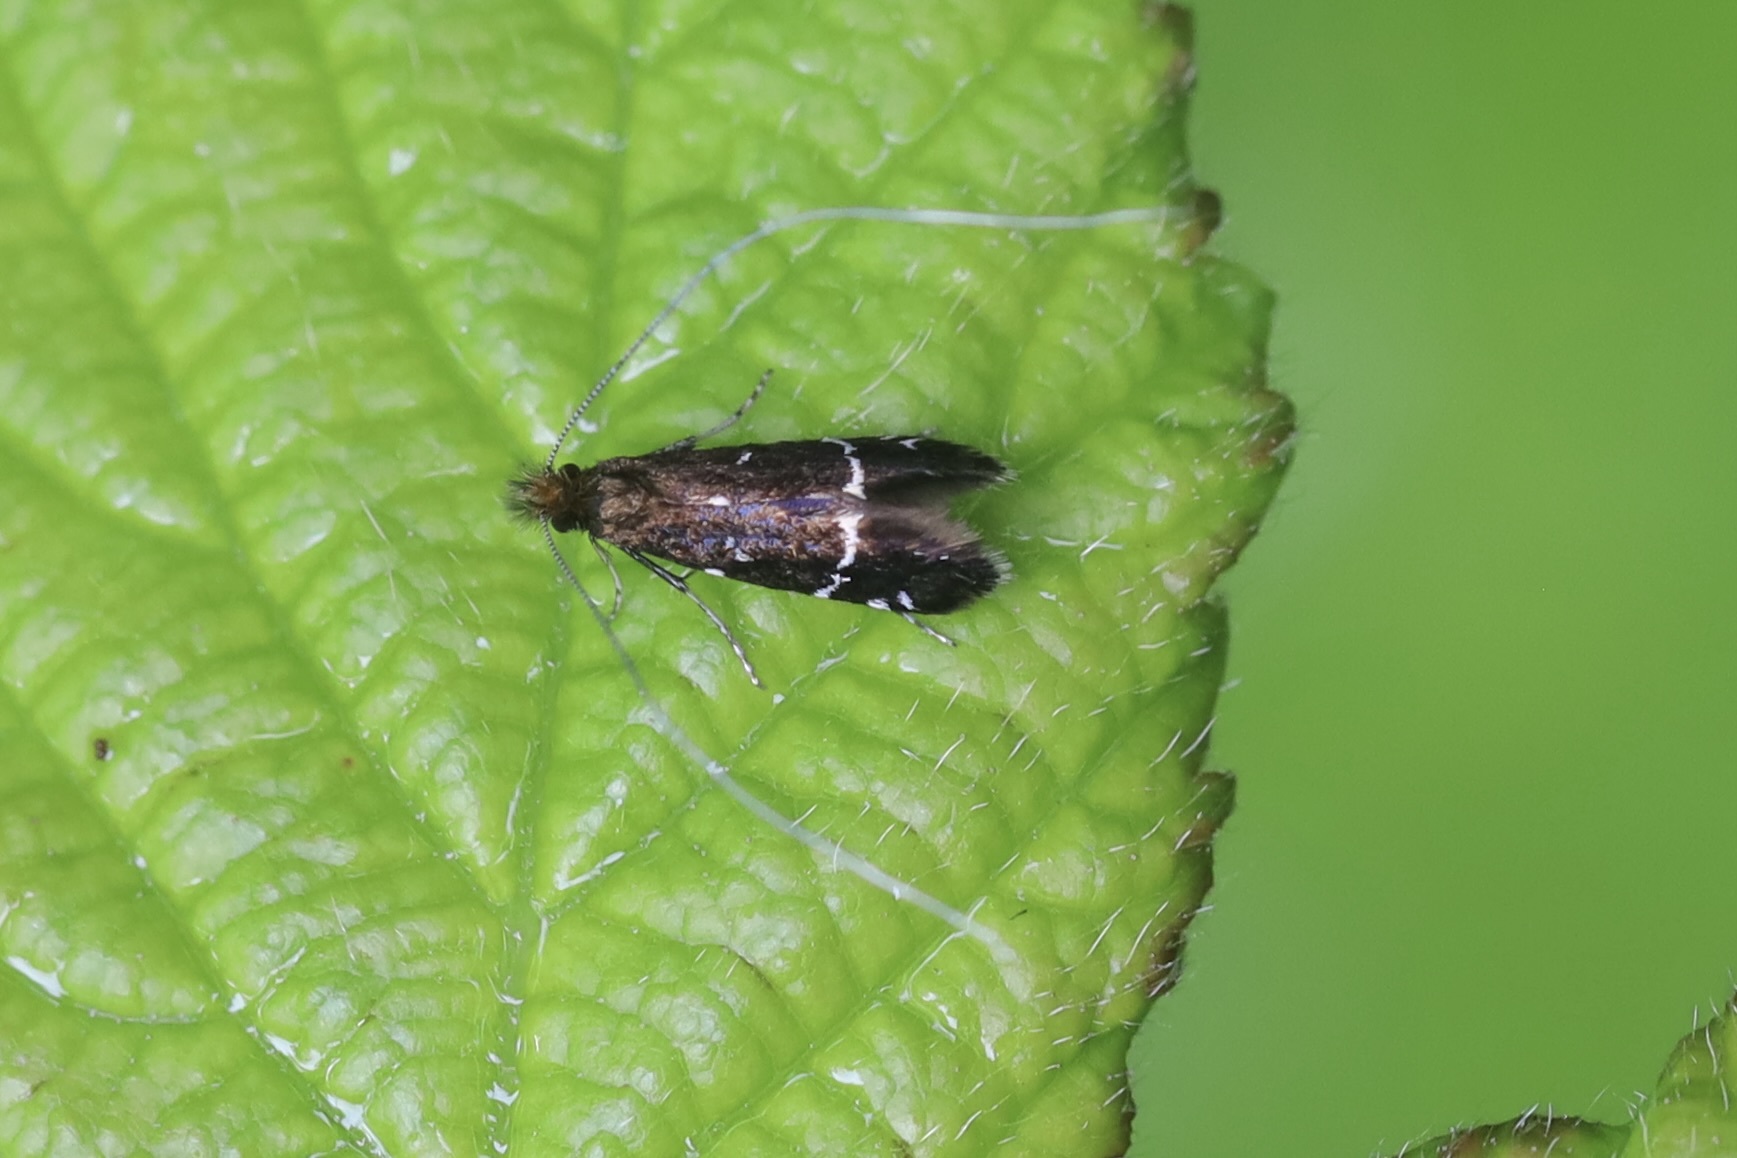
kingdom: Animalia
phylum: Arthropoda
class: Insecta
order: Lepidoptera
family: Adelidae
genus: Adela
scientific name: Adela septentrionella
